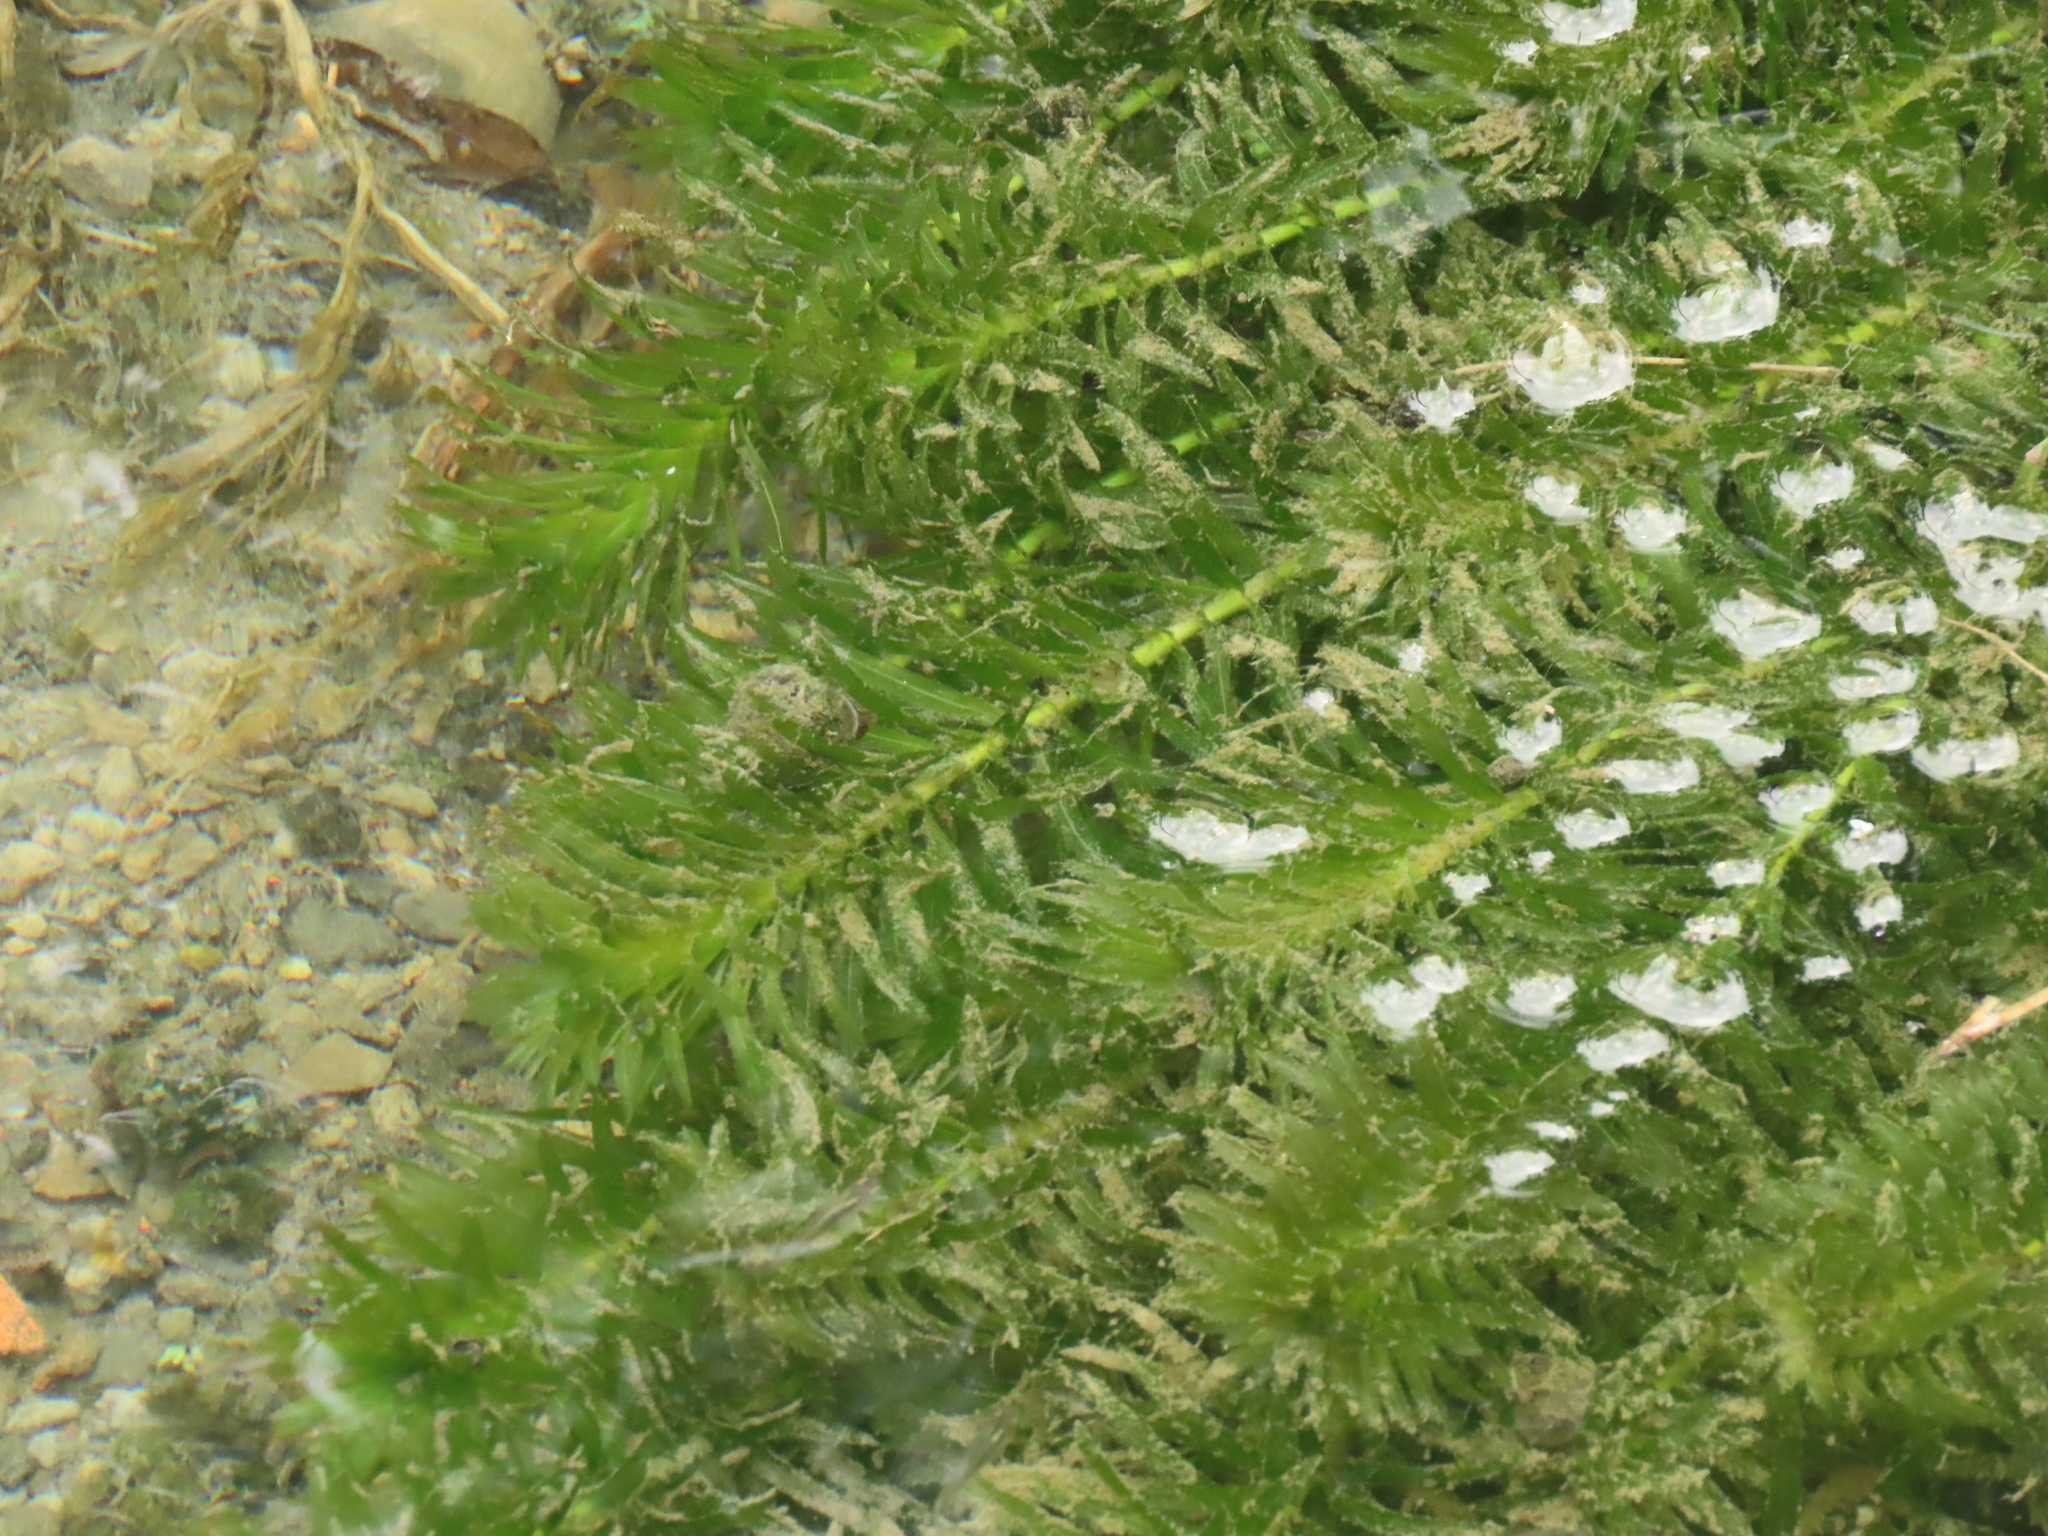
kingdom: Plantae
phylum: Tracheophyta
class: Liliopsida
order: Alismatales
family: Hydrocharitaceae
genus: Elodea
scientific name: Elodea densa
